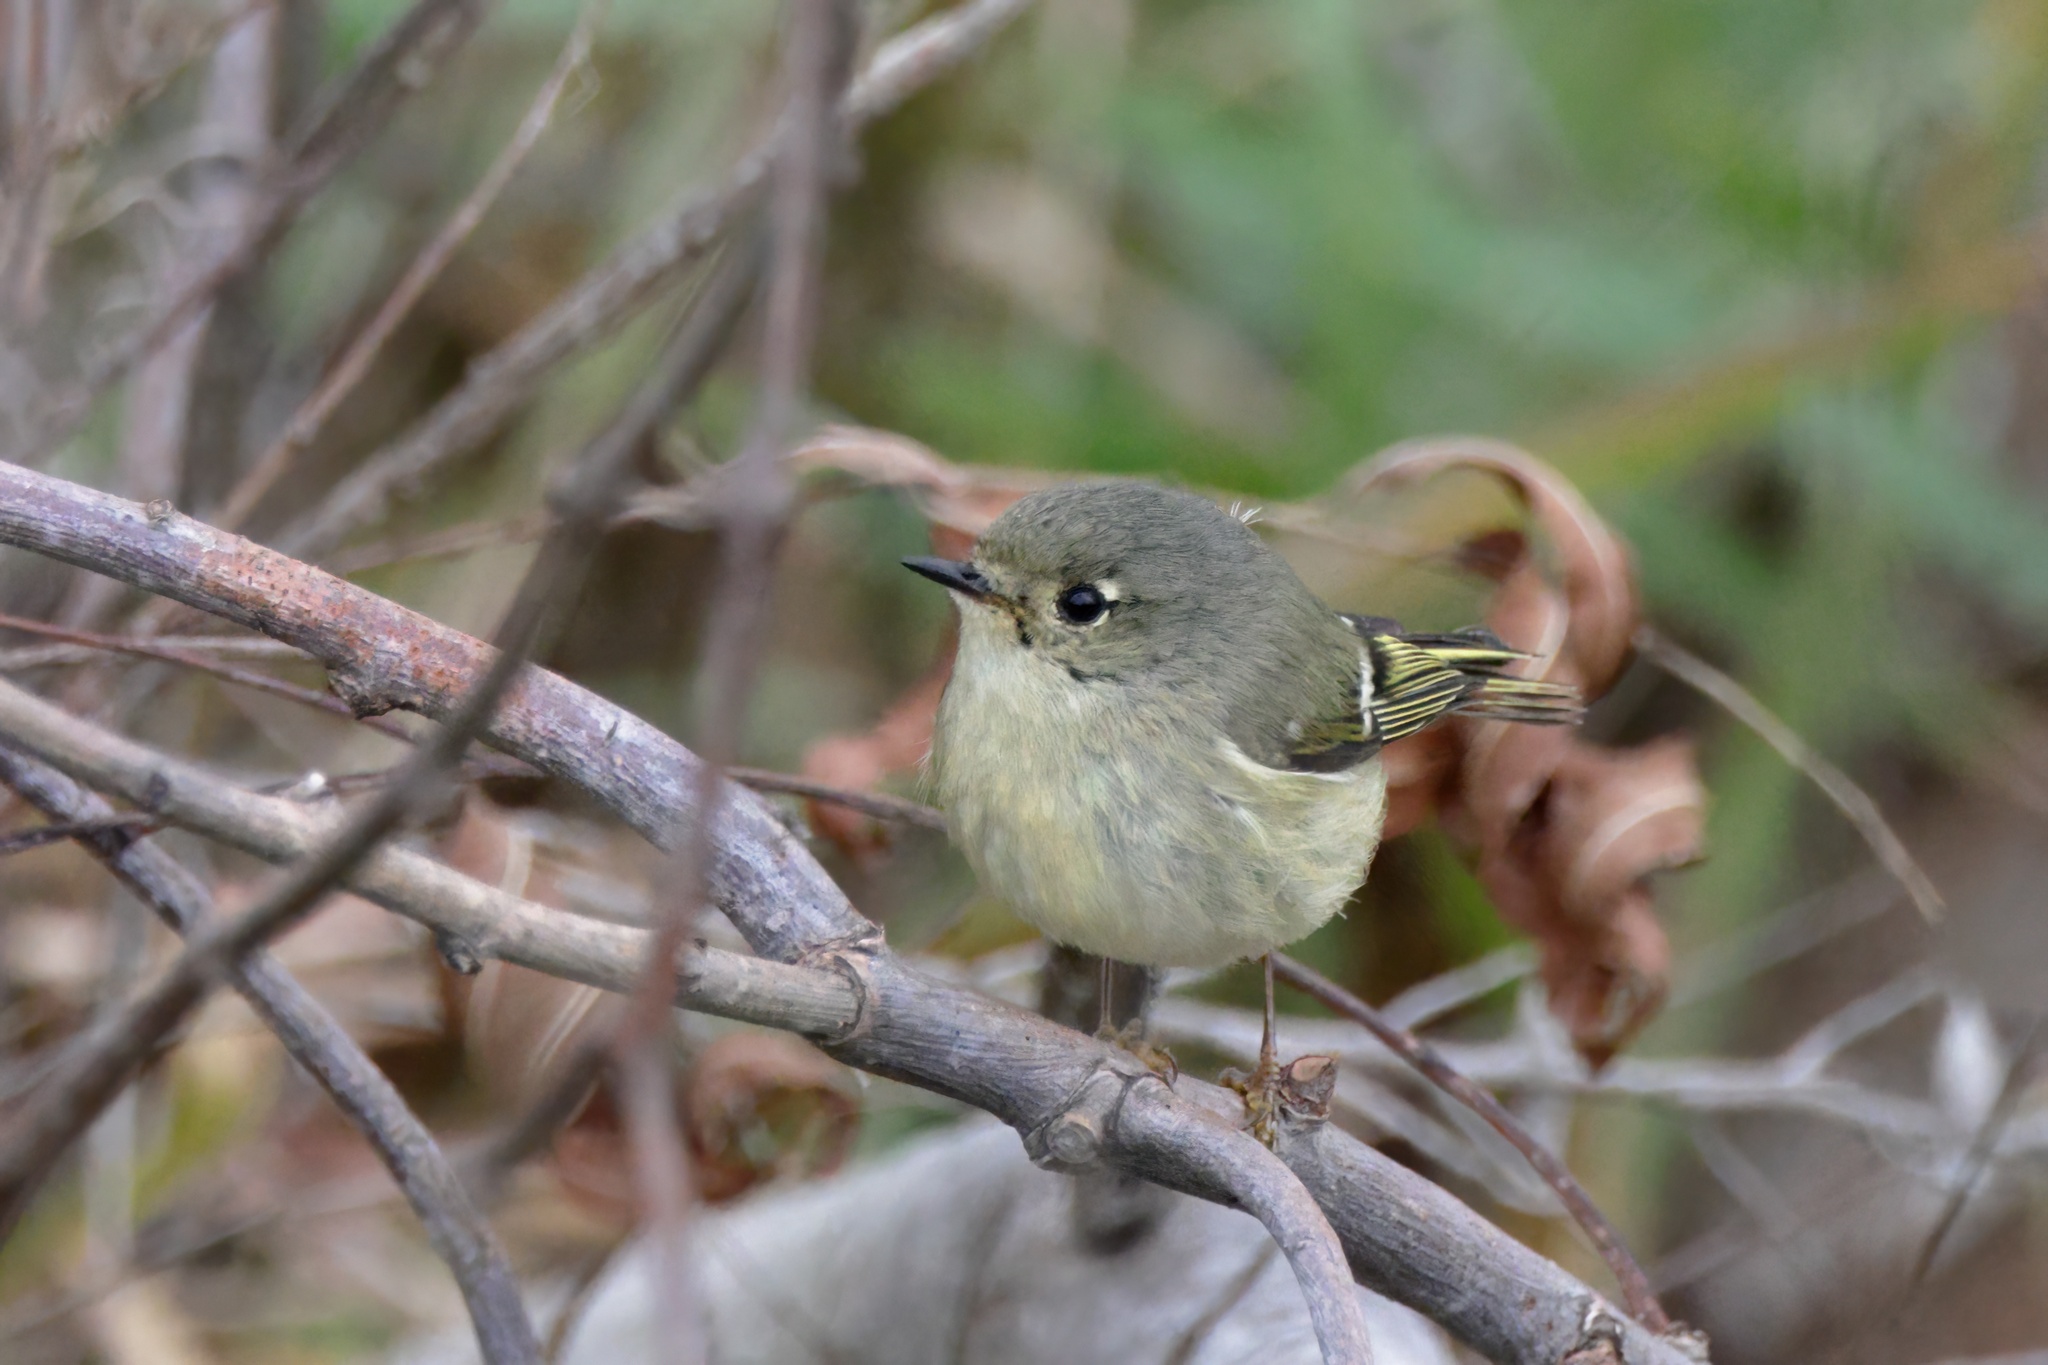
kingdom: Animalia
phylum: Chordata
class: Aves
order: Passeriformes
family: Regulidae
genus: Regulus
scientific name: Regulus calendula
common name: Ruby-crowned kinglet
